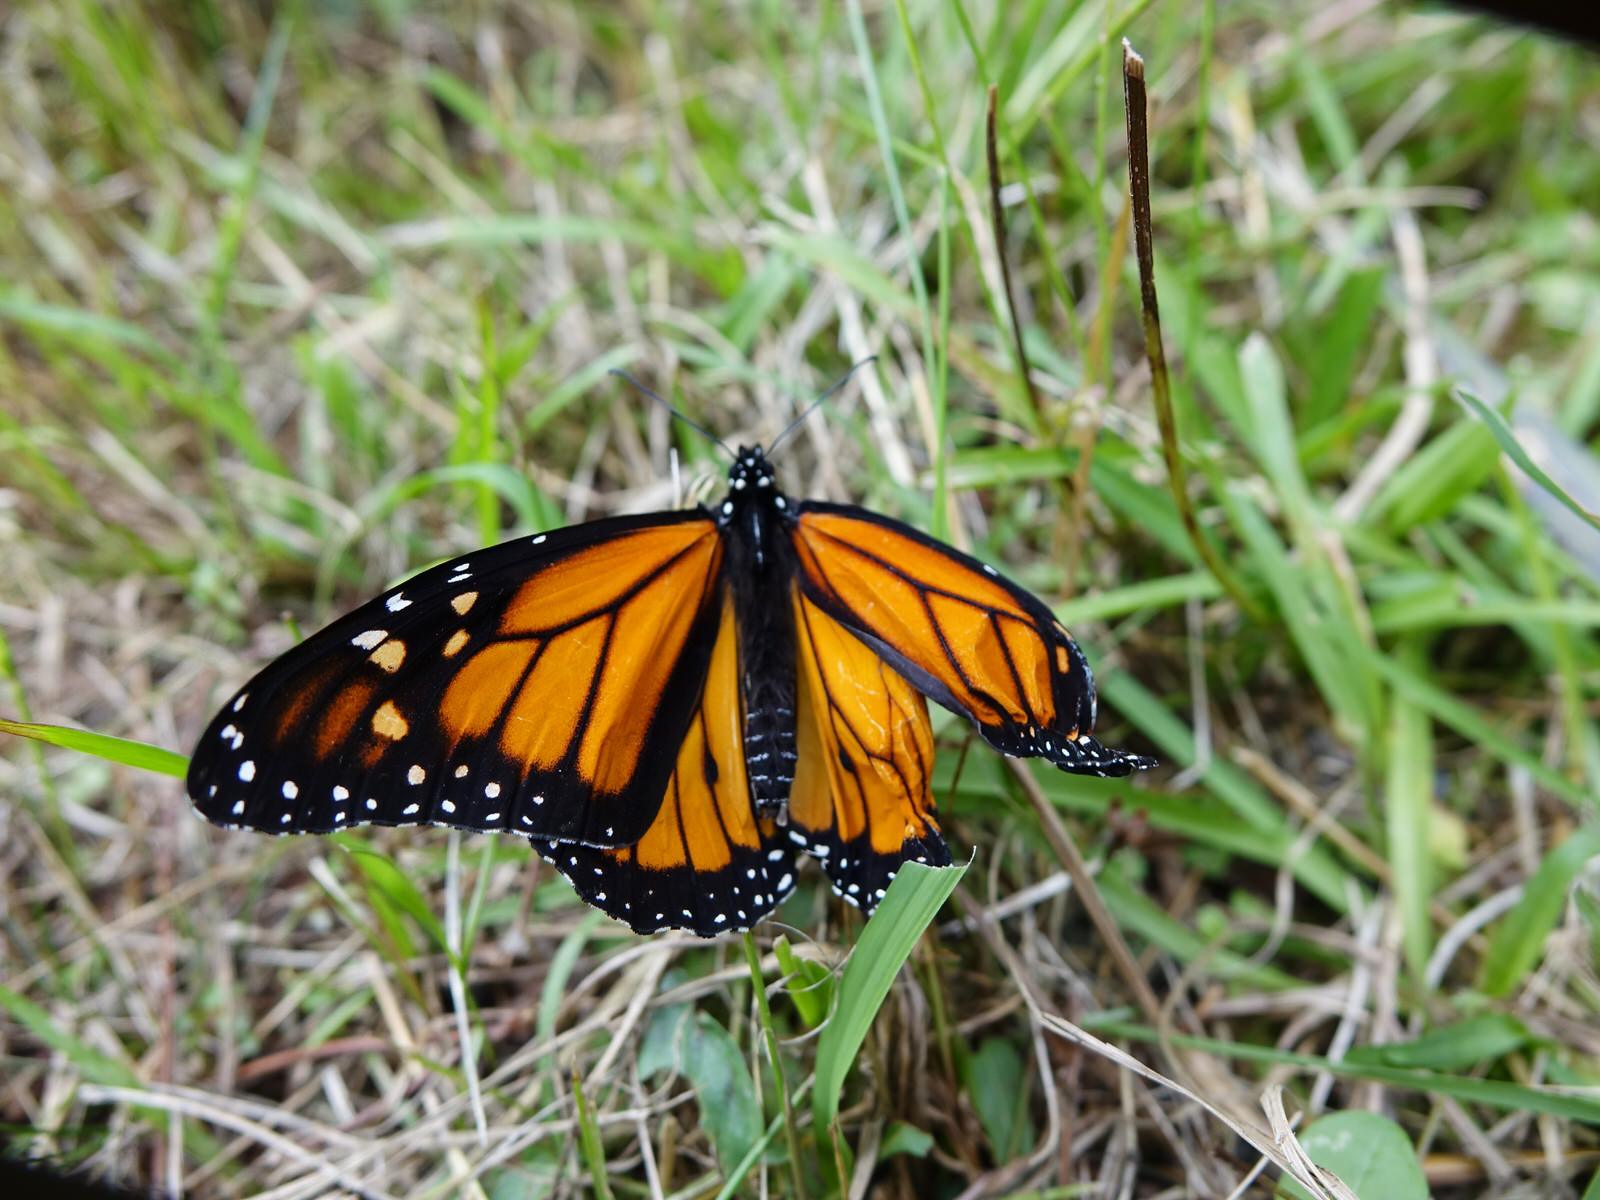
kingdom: Animalia
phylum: Arthropoda
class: Insecta
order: Lepidoptera
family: Nymphalidae
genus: Danaus
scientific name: Danaus plexippus
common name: Monarch
